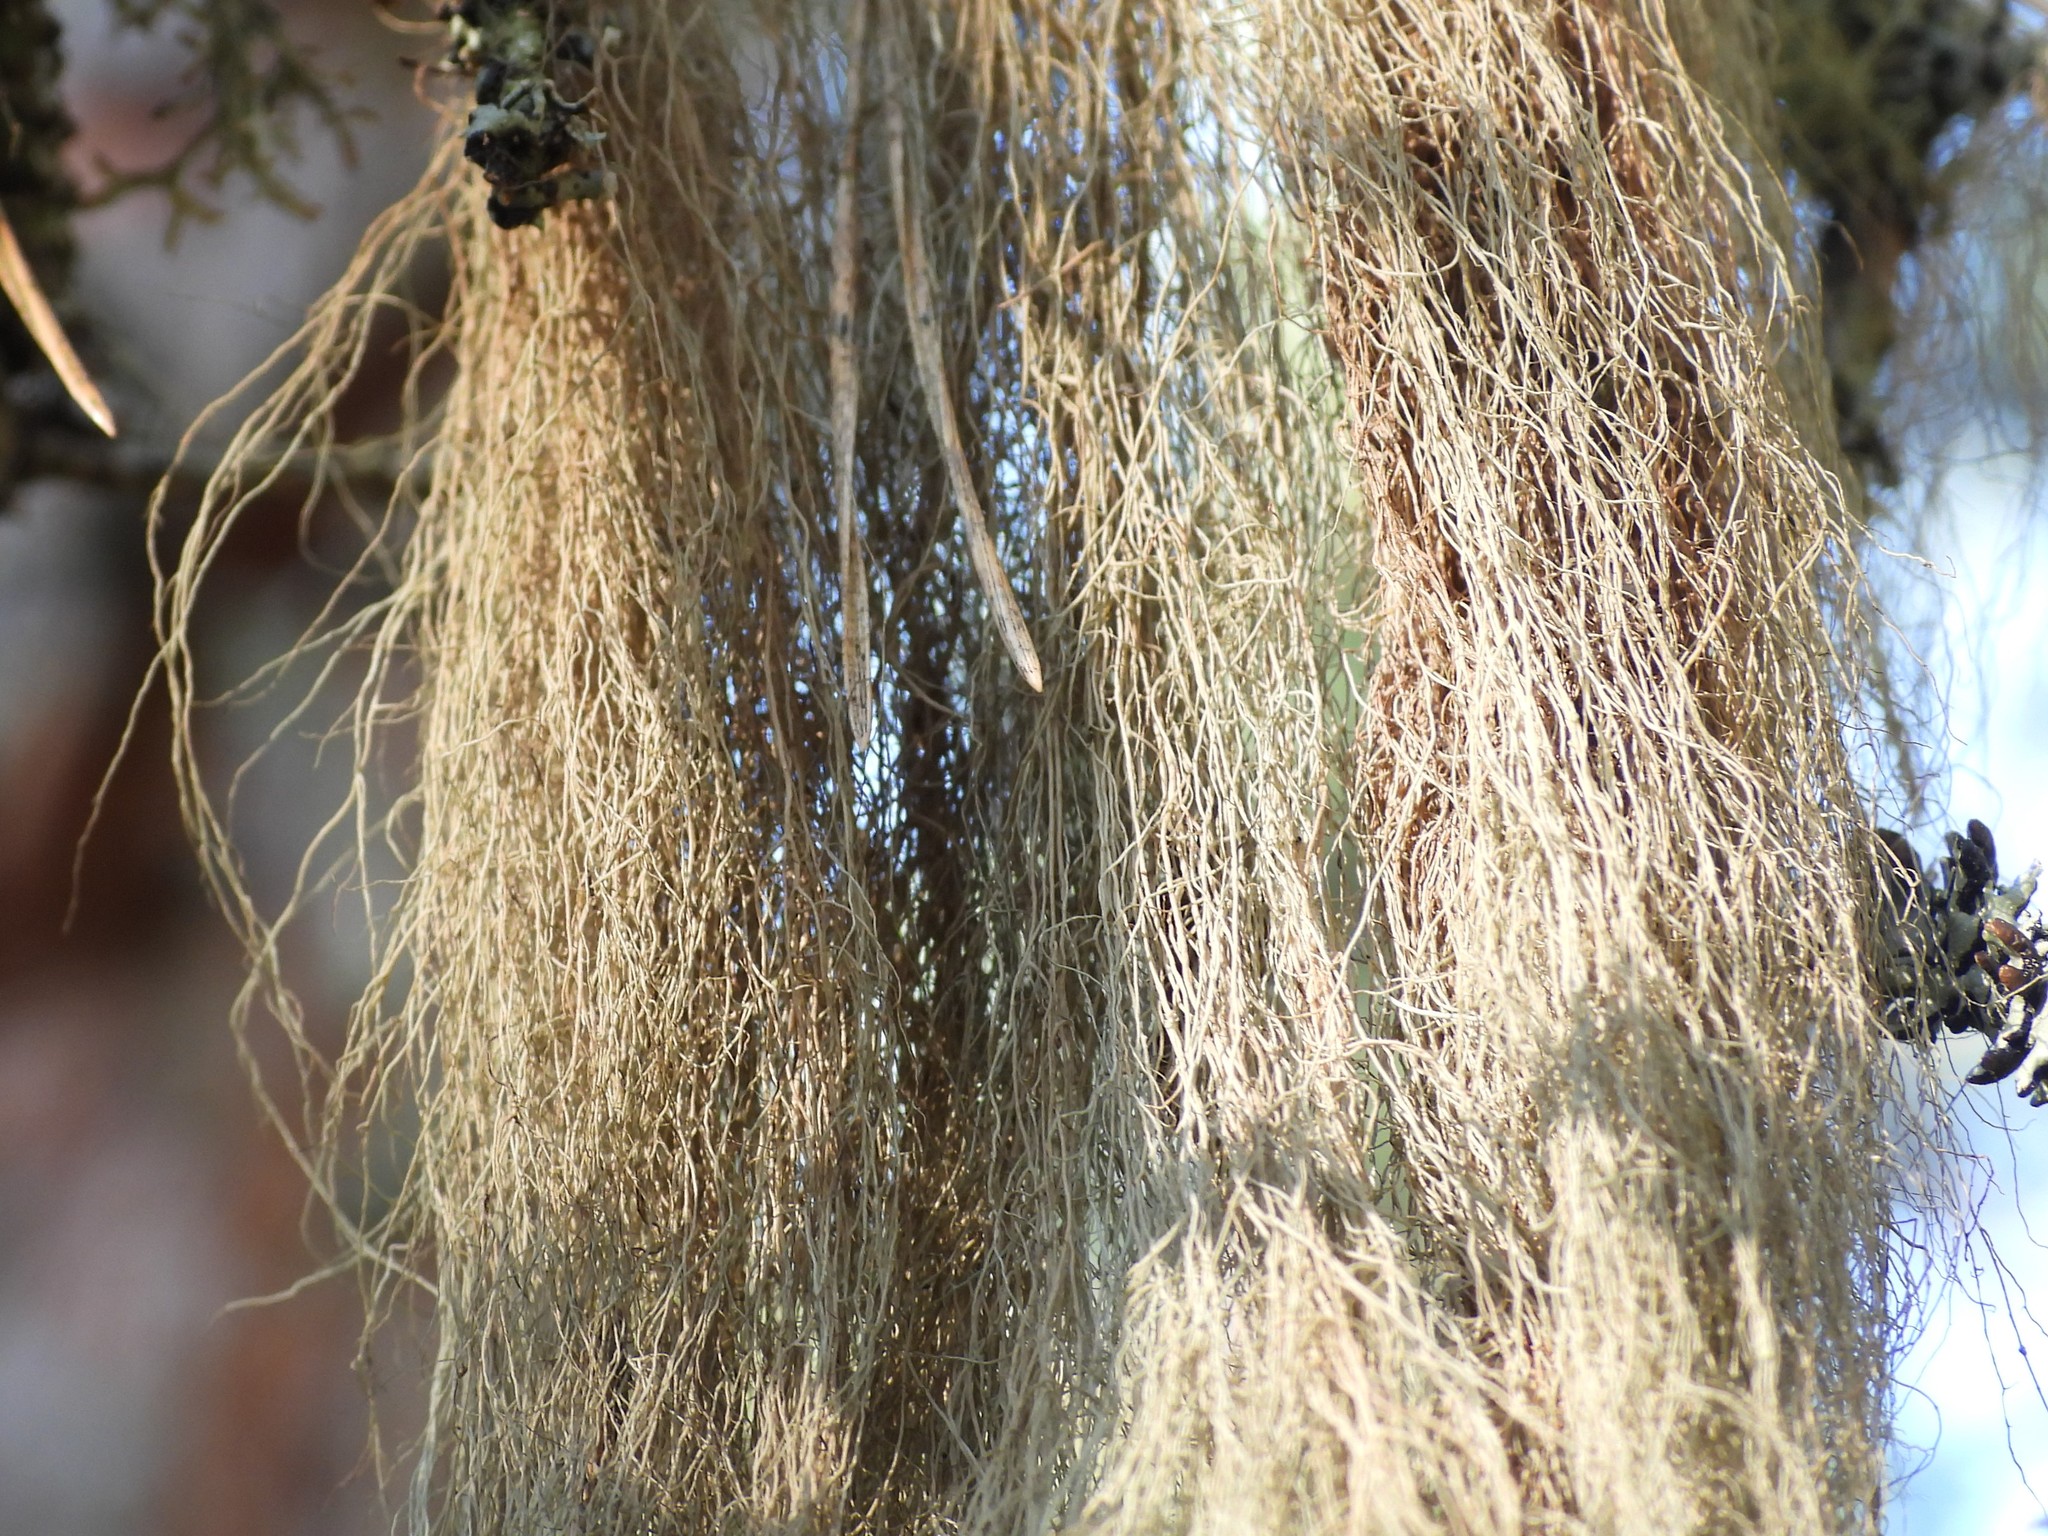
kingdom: Fungi
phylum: Ascomycota
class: Lecanoromycetes
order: Lecanorales
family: Parmeliaceae
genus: Bryoria
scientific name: Bryoria fuscescens
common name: Pale-footed horsehair lichen
